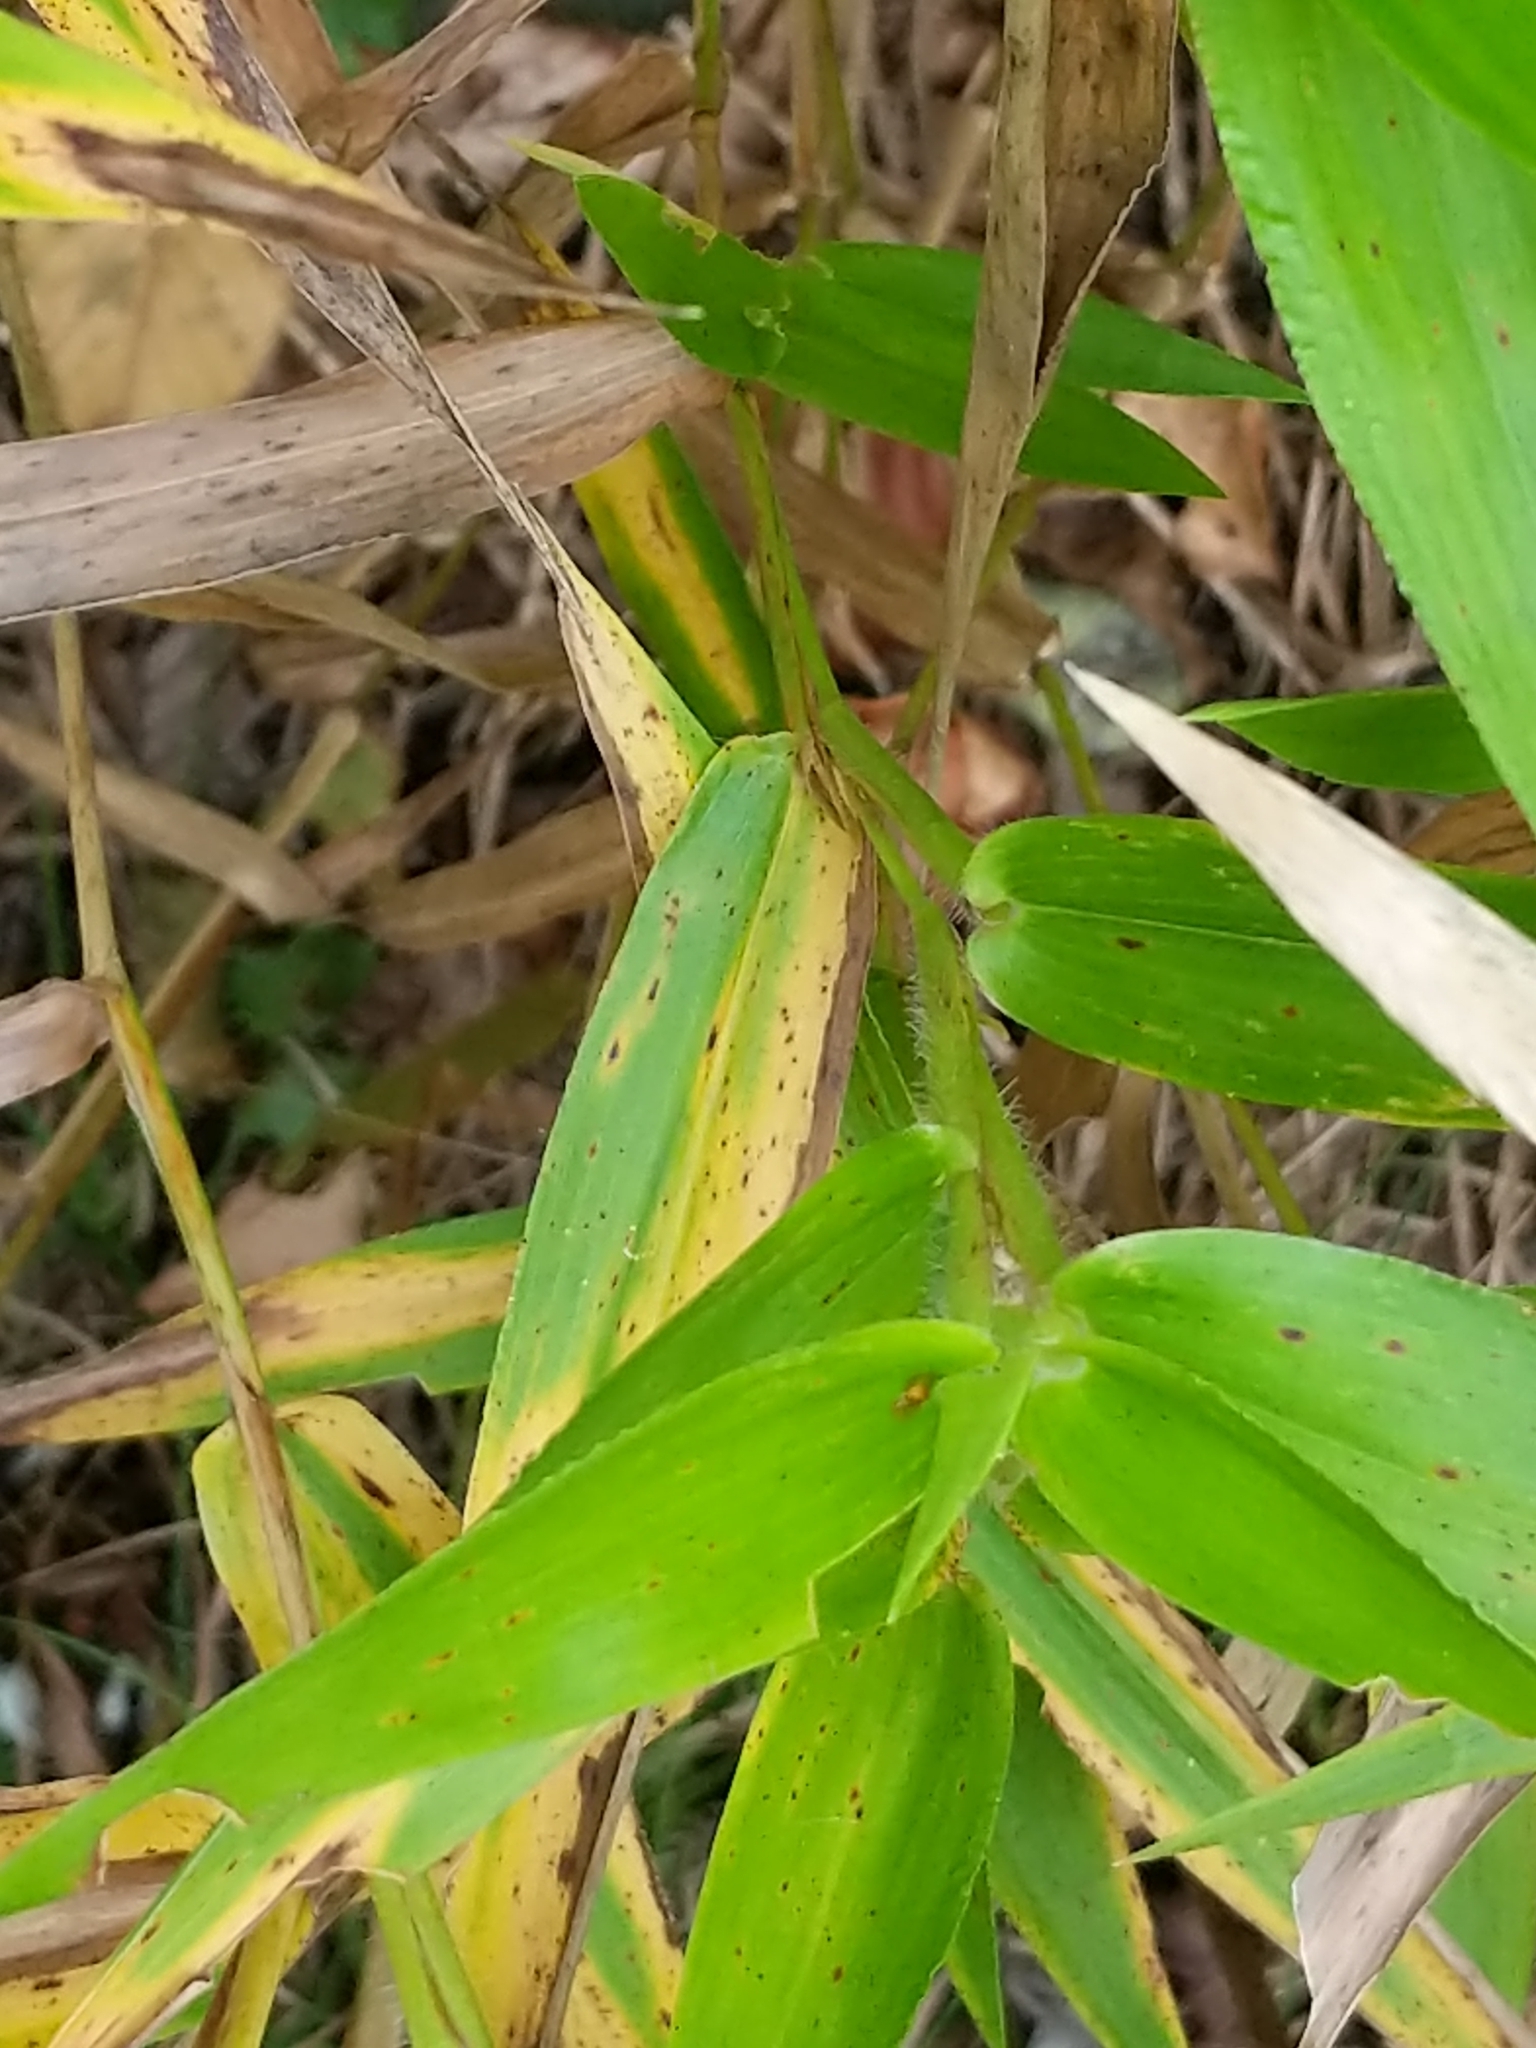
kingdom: Plantae
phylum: Tracheophyta
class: Liliopsida
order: Poales
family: Poaceae
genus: Dichanthelium
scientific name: Dichanthelium clandestinum
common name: Deer-tongue grass
